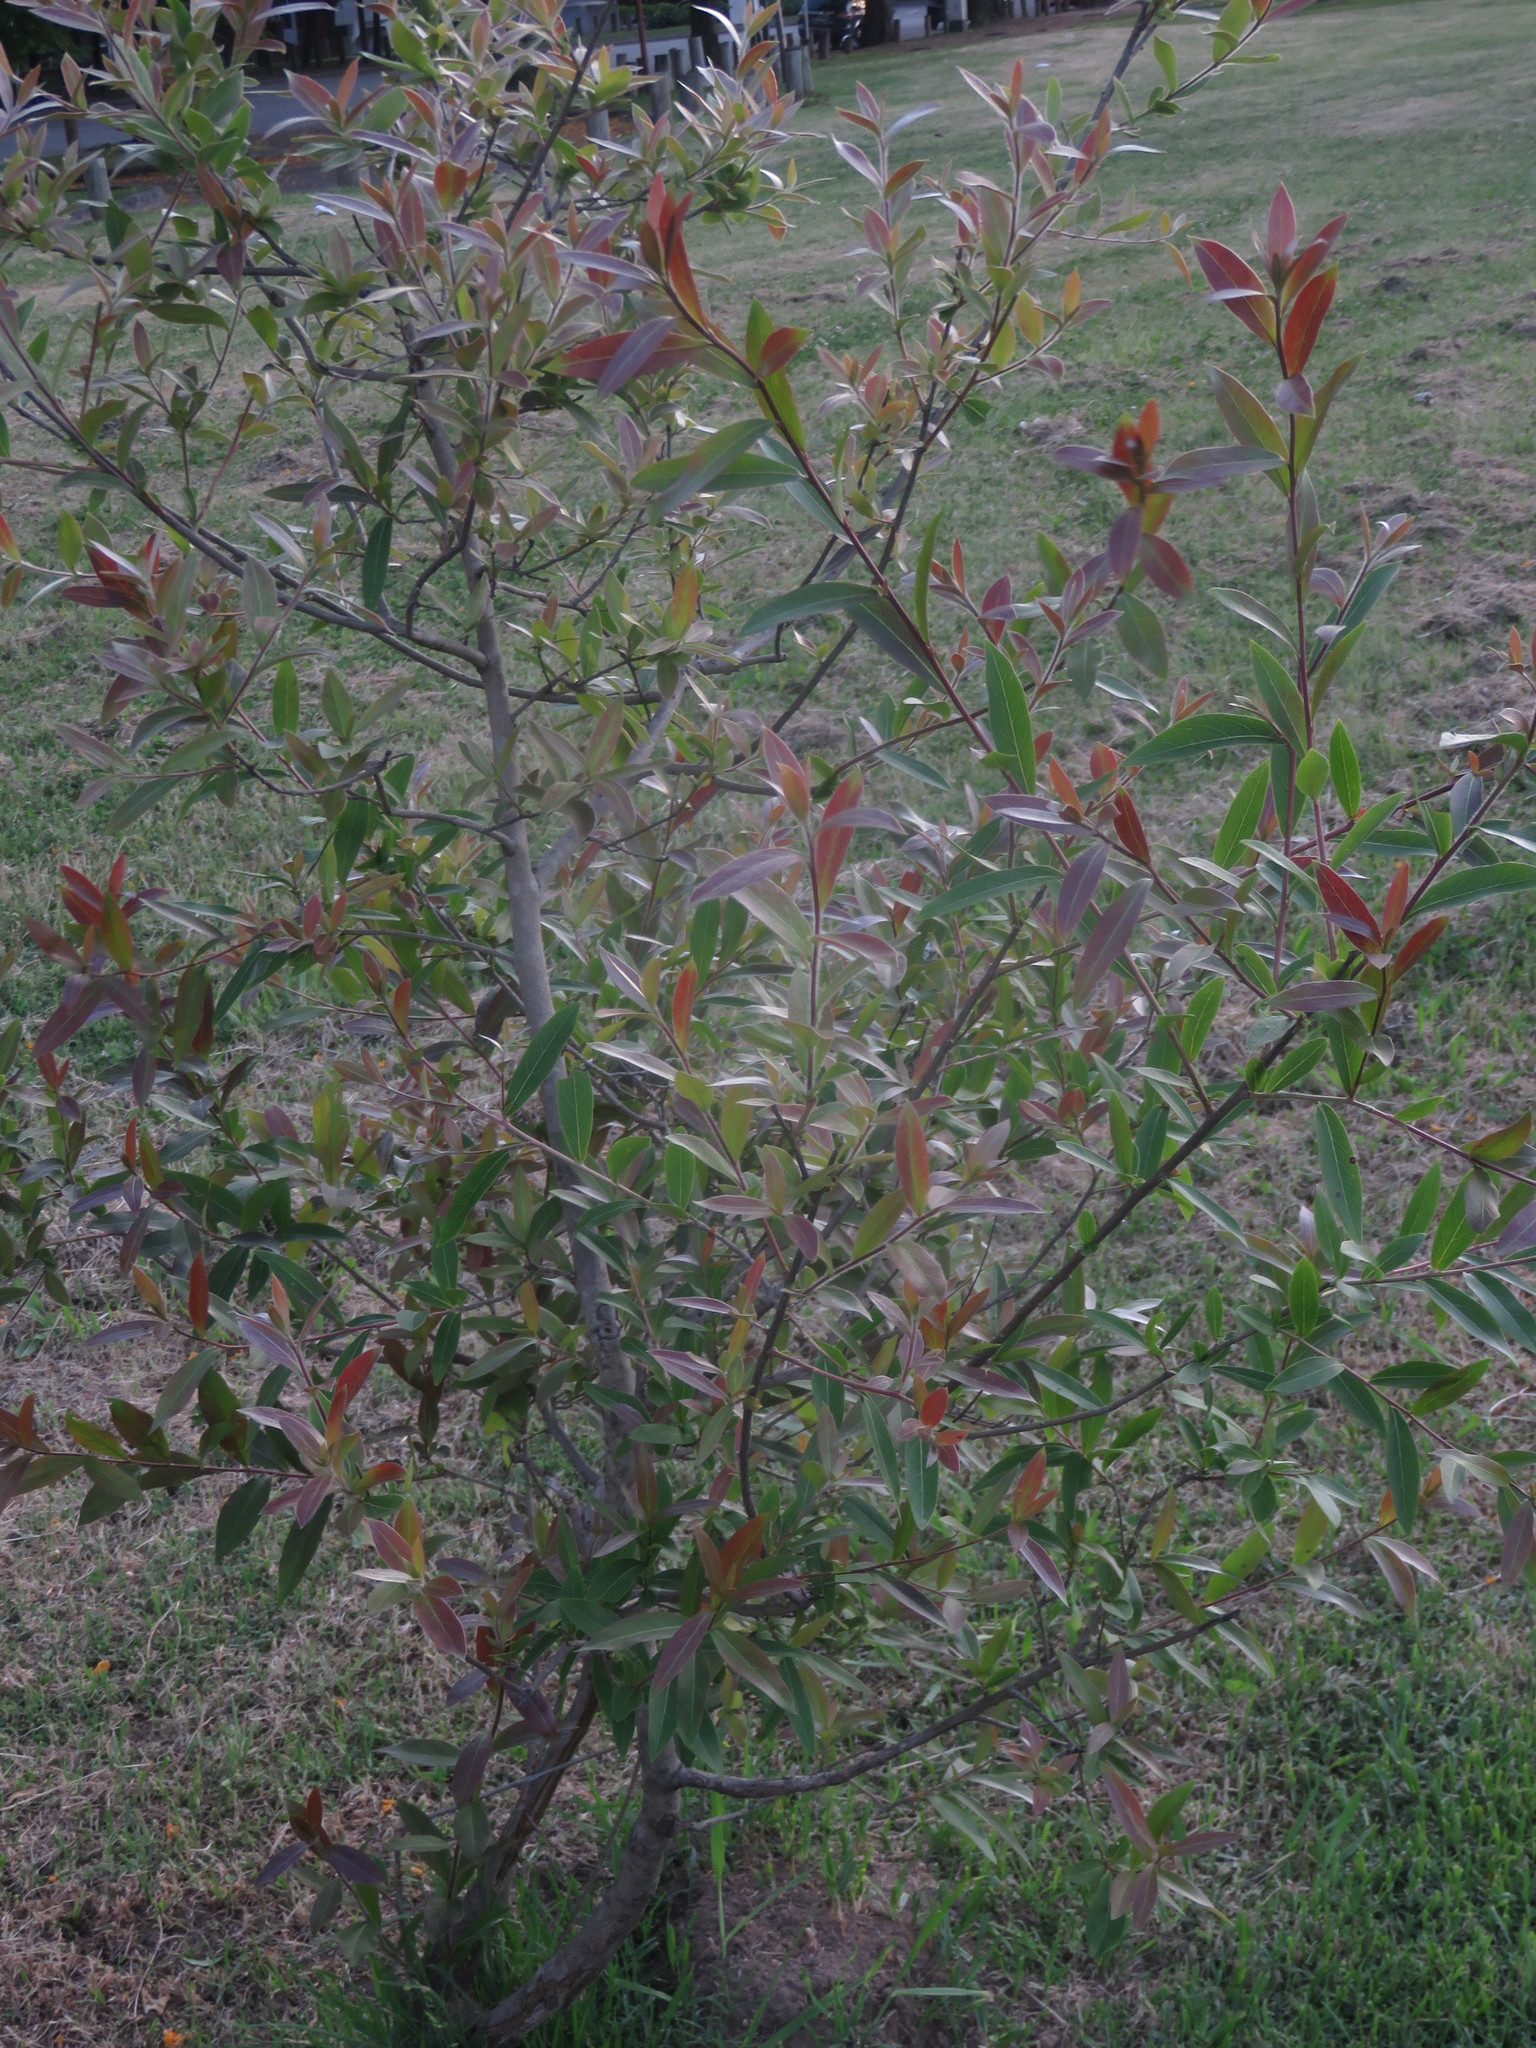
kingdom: Plantae
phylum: Tracheophyta
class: Magnoliopsida
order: Myrtales
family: Combretaceae
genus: Terminalia
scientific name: Terminalia australis
